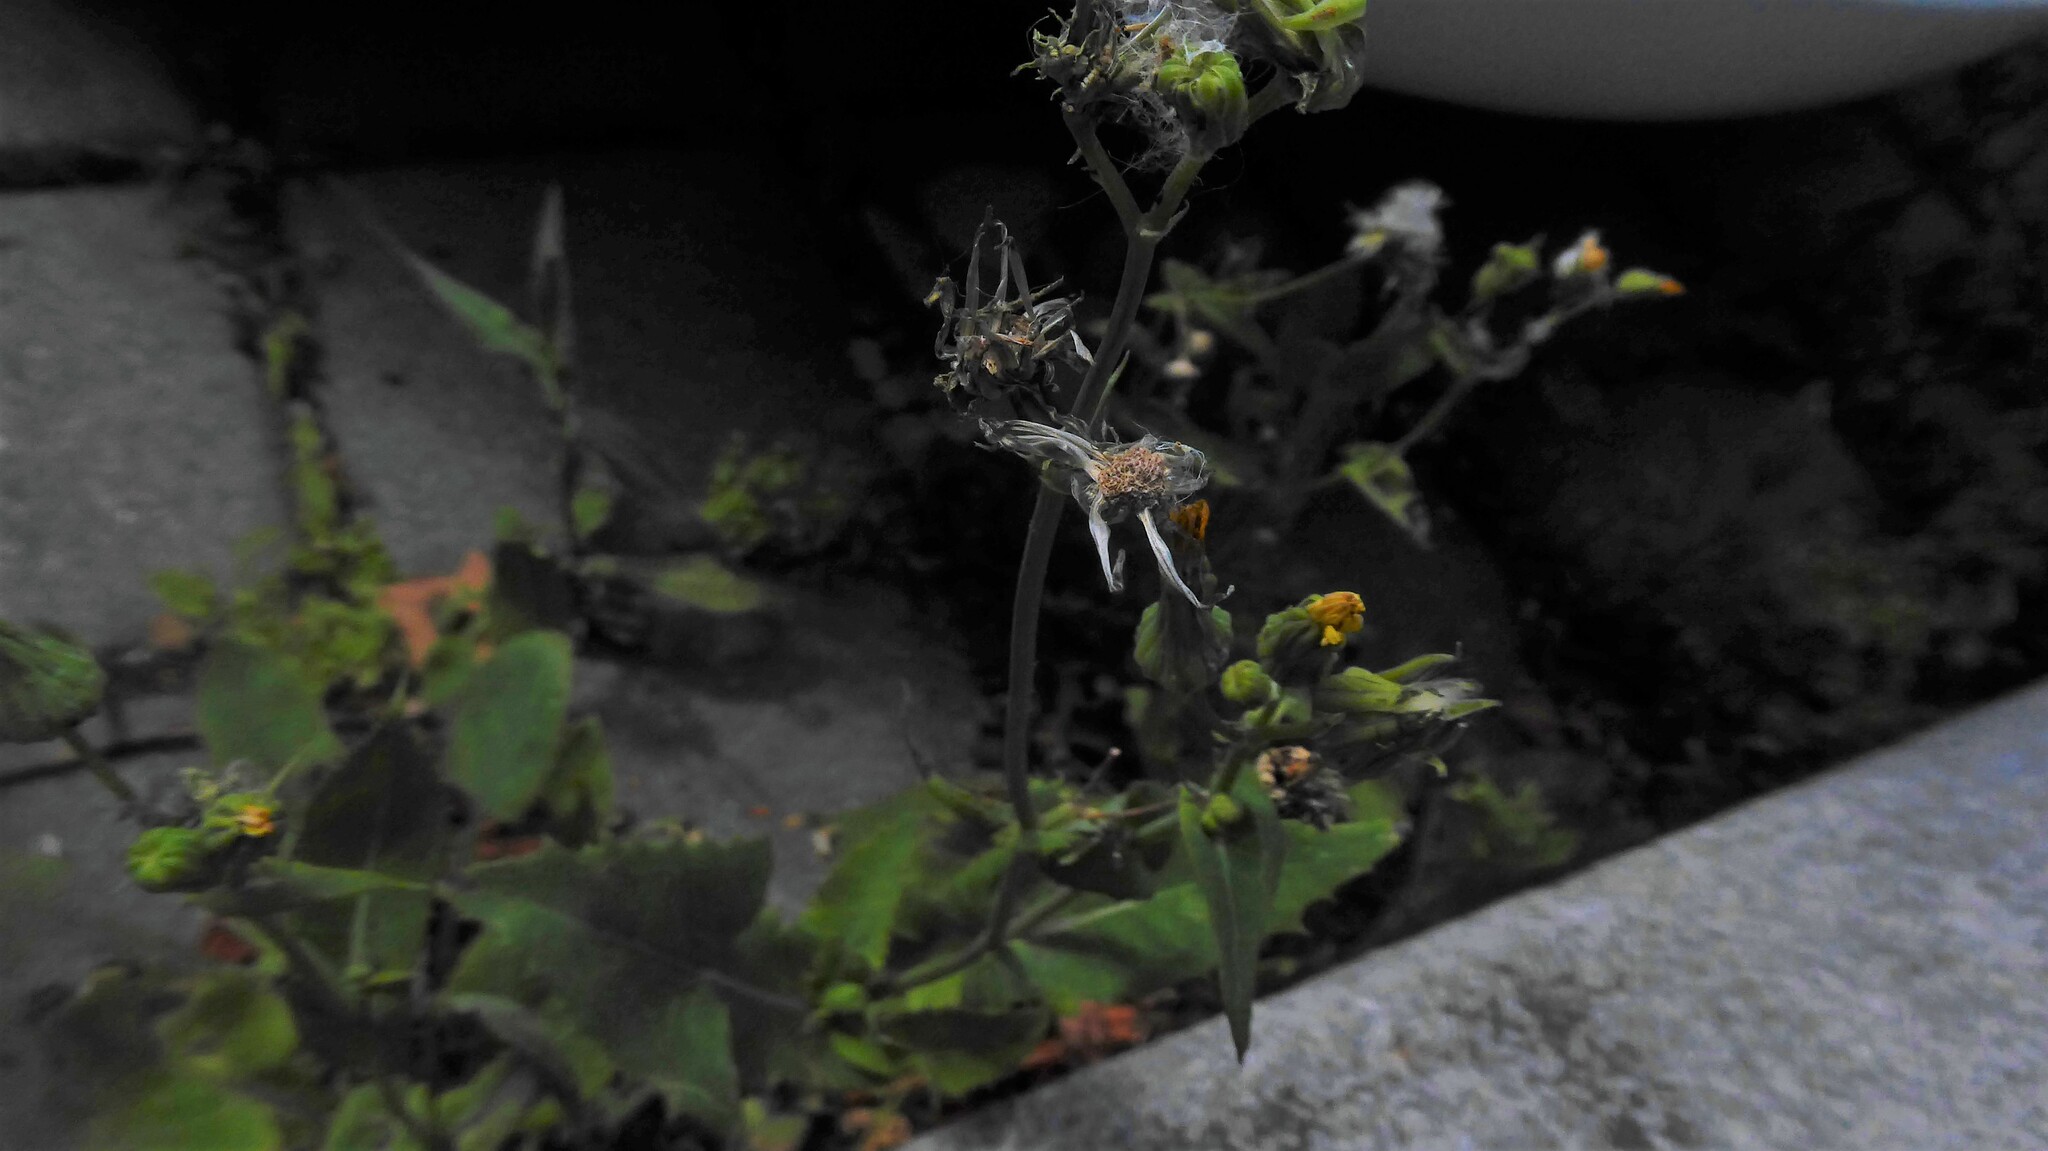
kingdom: Plantae
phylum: Tracheophyta
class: Magnoliopsida
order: Asterales
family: Asteraceae
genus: Sonchus
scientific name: Sonchus oleraceus
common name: Common sowthistle
